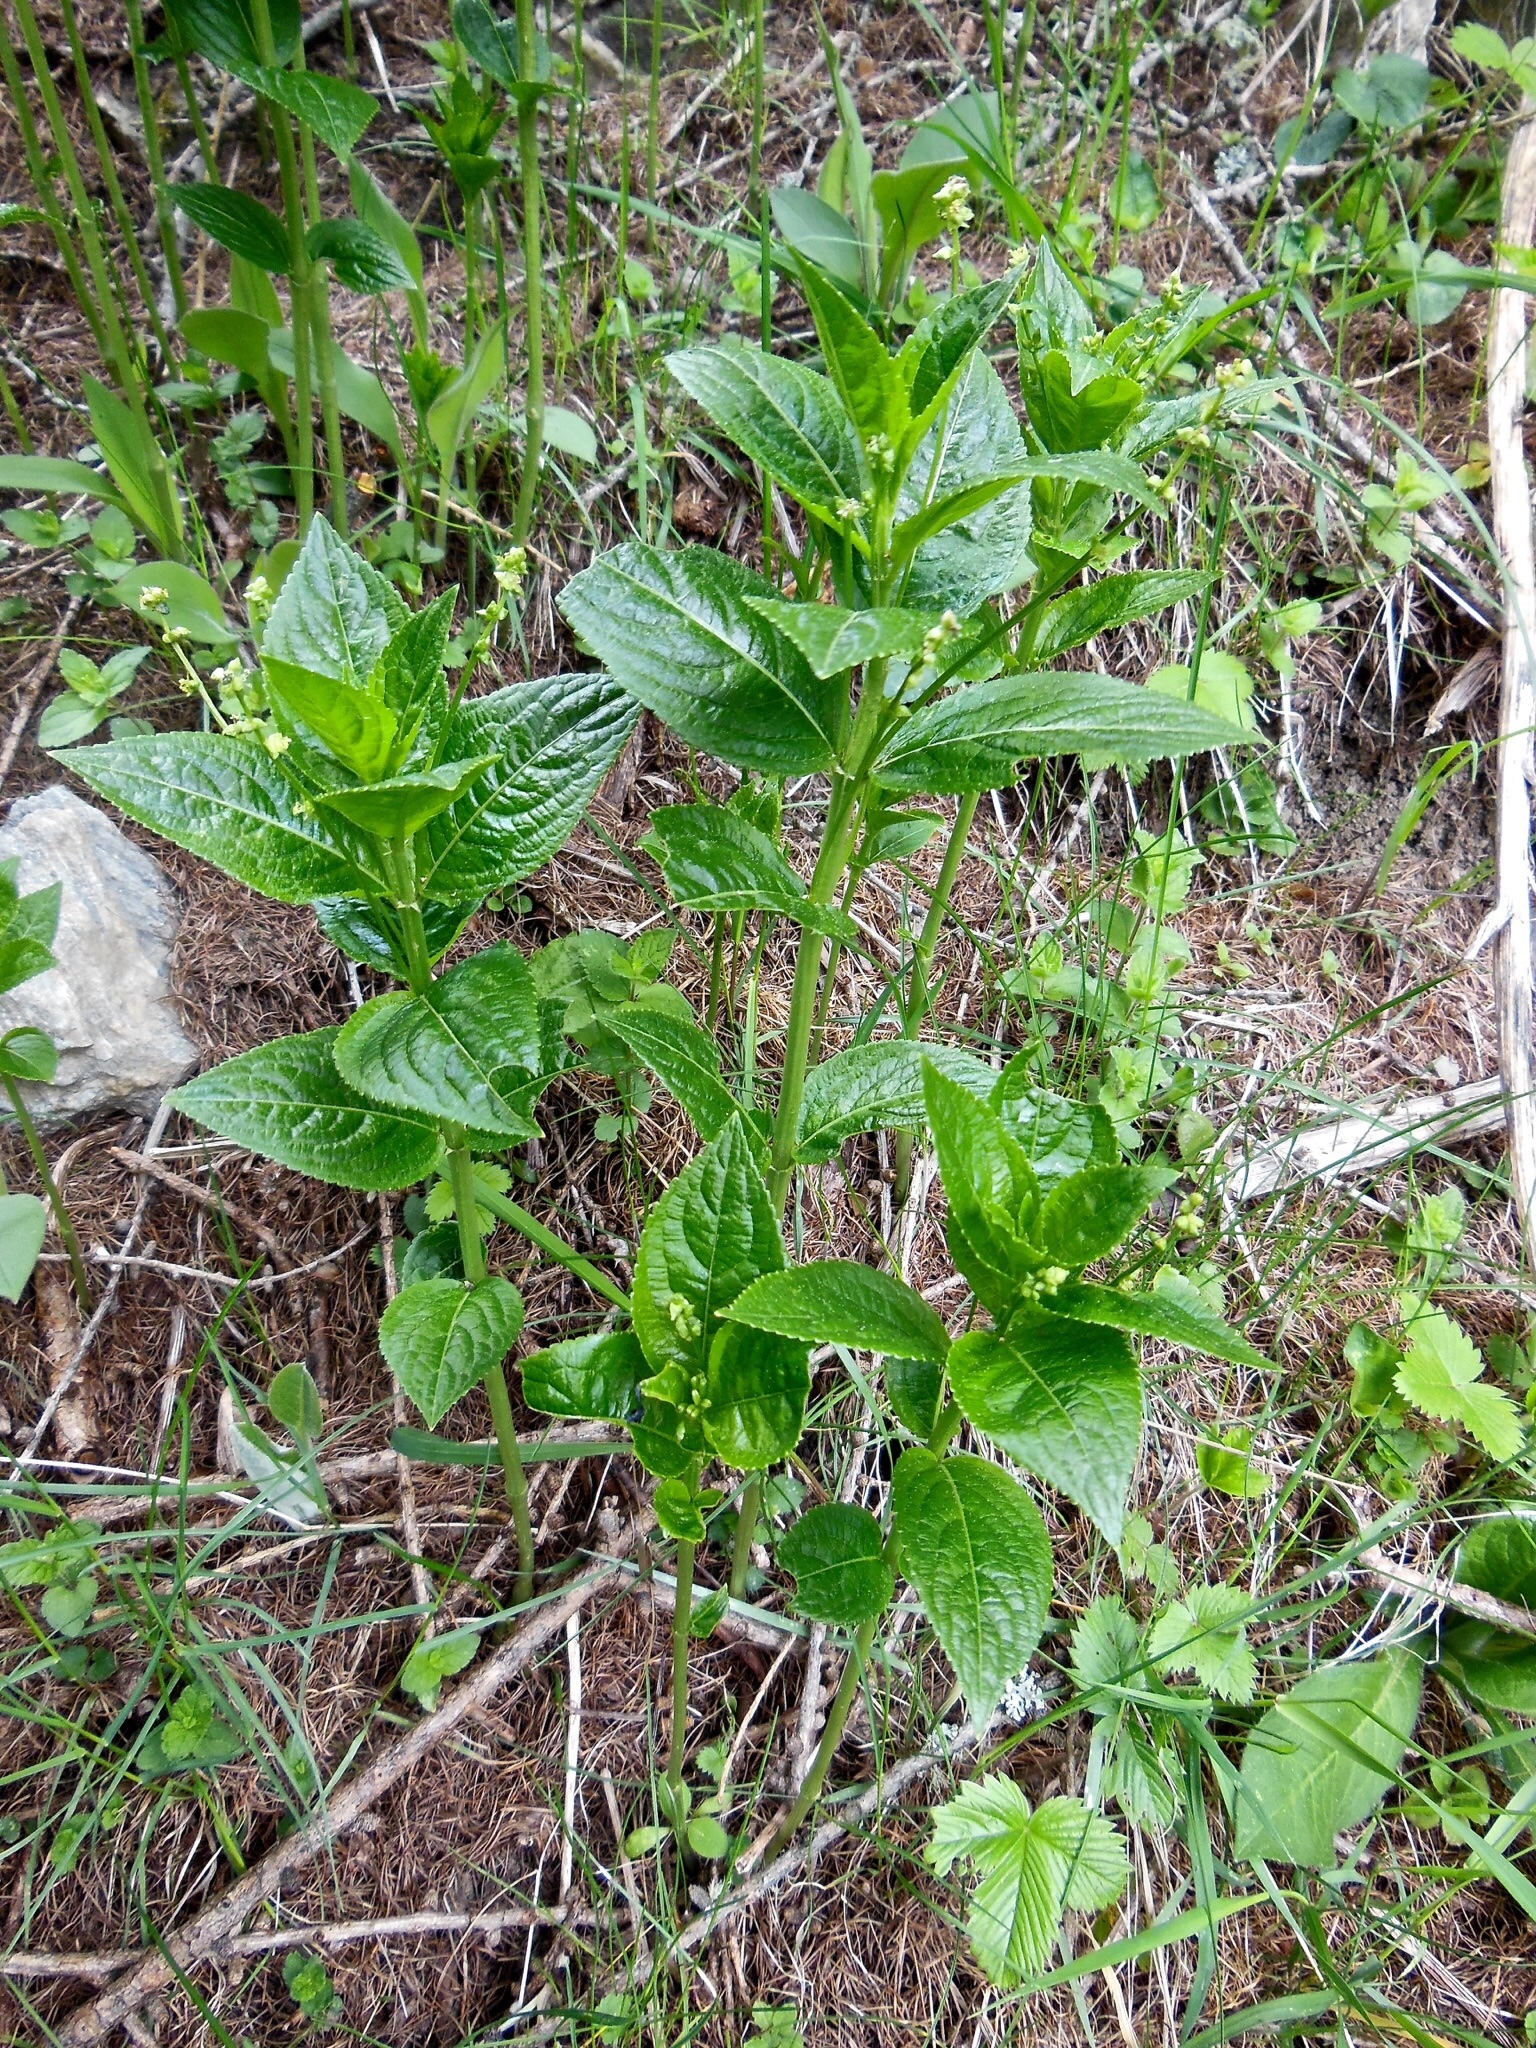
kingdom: Plantae
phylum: Tracheophyta
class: Magnoliopsida
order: Malpighiales
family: Euphorbiaceae
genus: Mercurialis
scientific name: Mercurialis ovata
